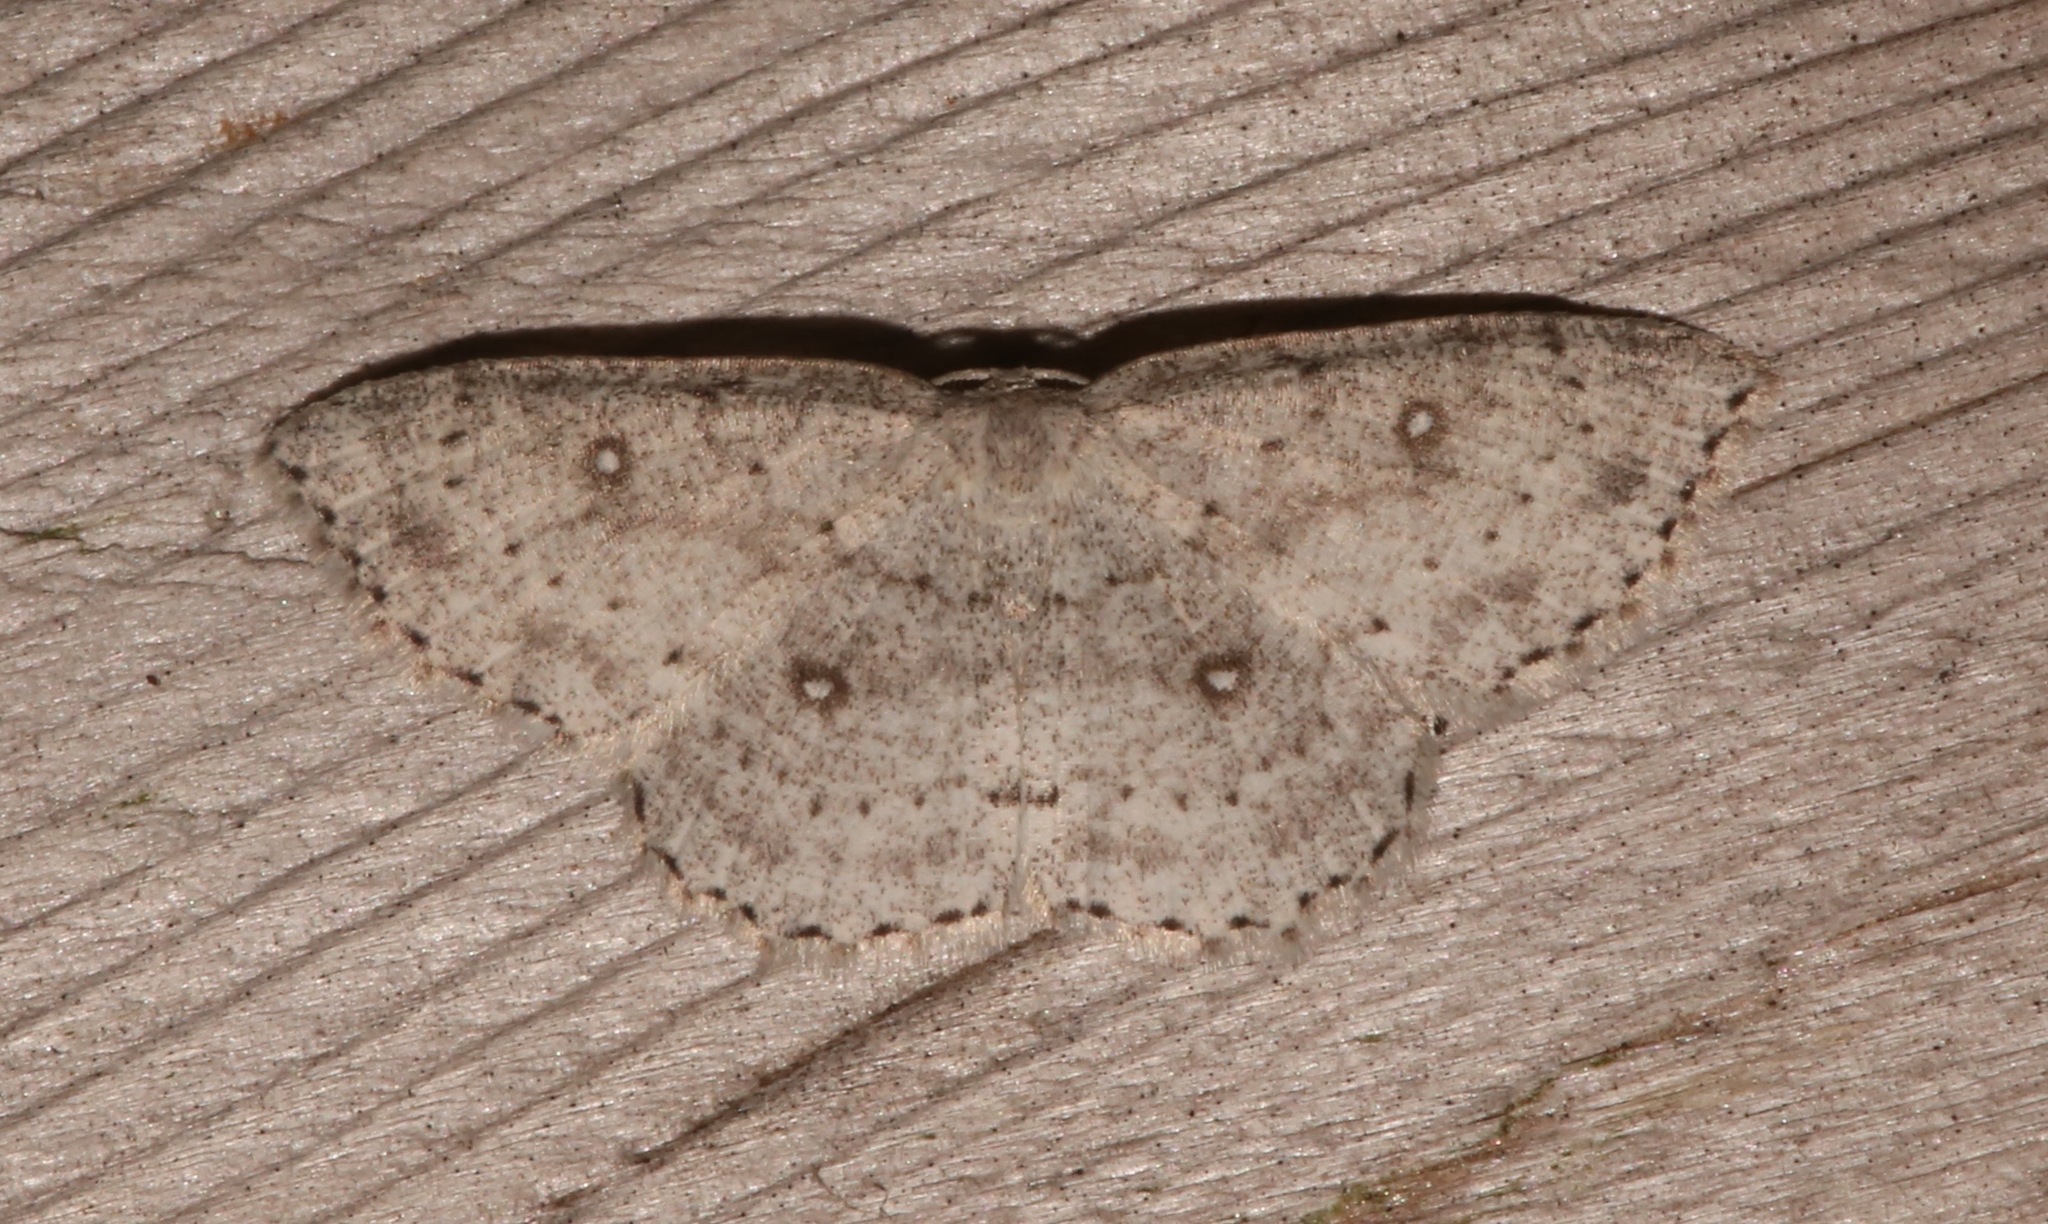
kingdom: Animalia
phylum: Arthropoda
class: Insecta
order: Lepidoptera
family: Geometridae
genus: Cyclophora
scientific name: Cyclophora pendulinaria
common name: Sweet fern geometer
